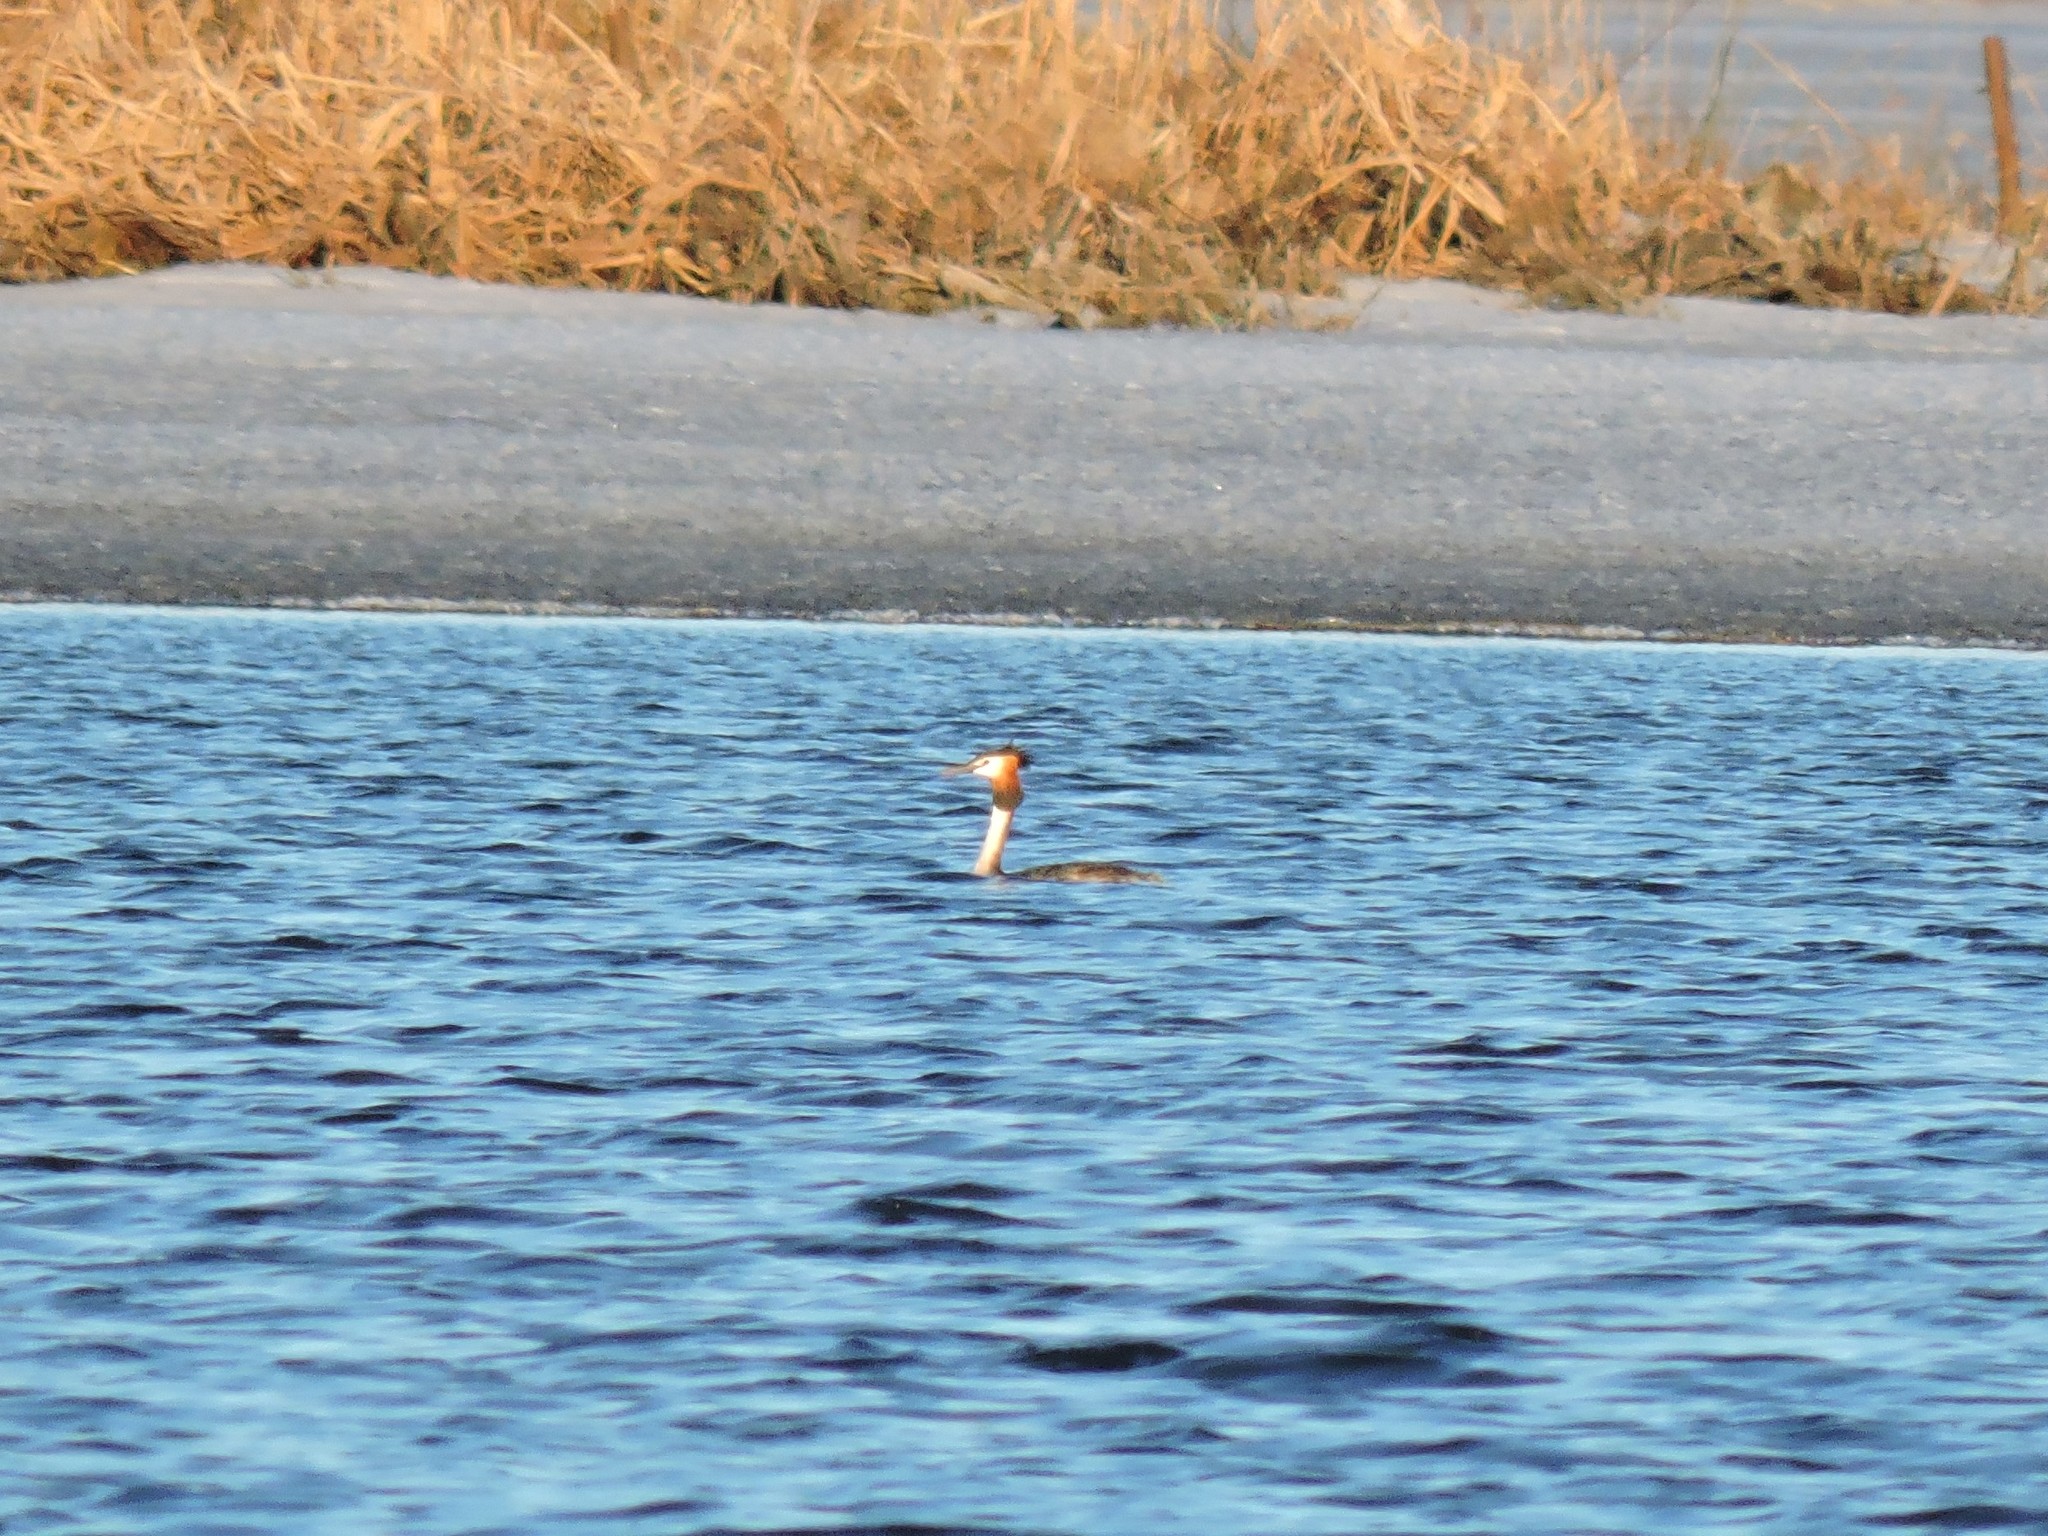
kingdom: Animalia
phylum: Chordata
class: Aves
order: Podicipediformes
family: Podicipedidae
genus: Podiceps
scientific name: Podiceps cristatus
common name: Great crested grebe
